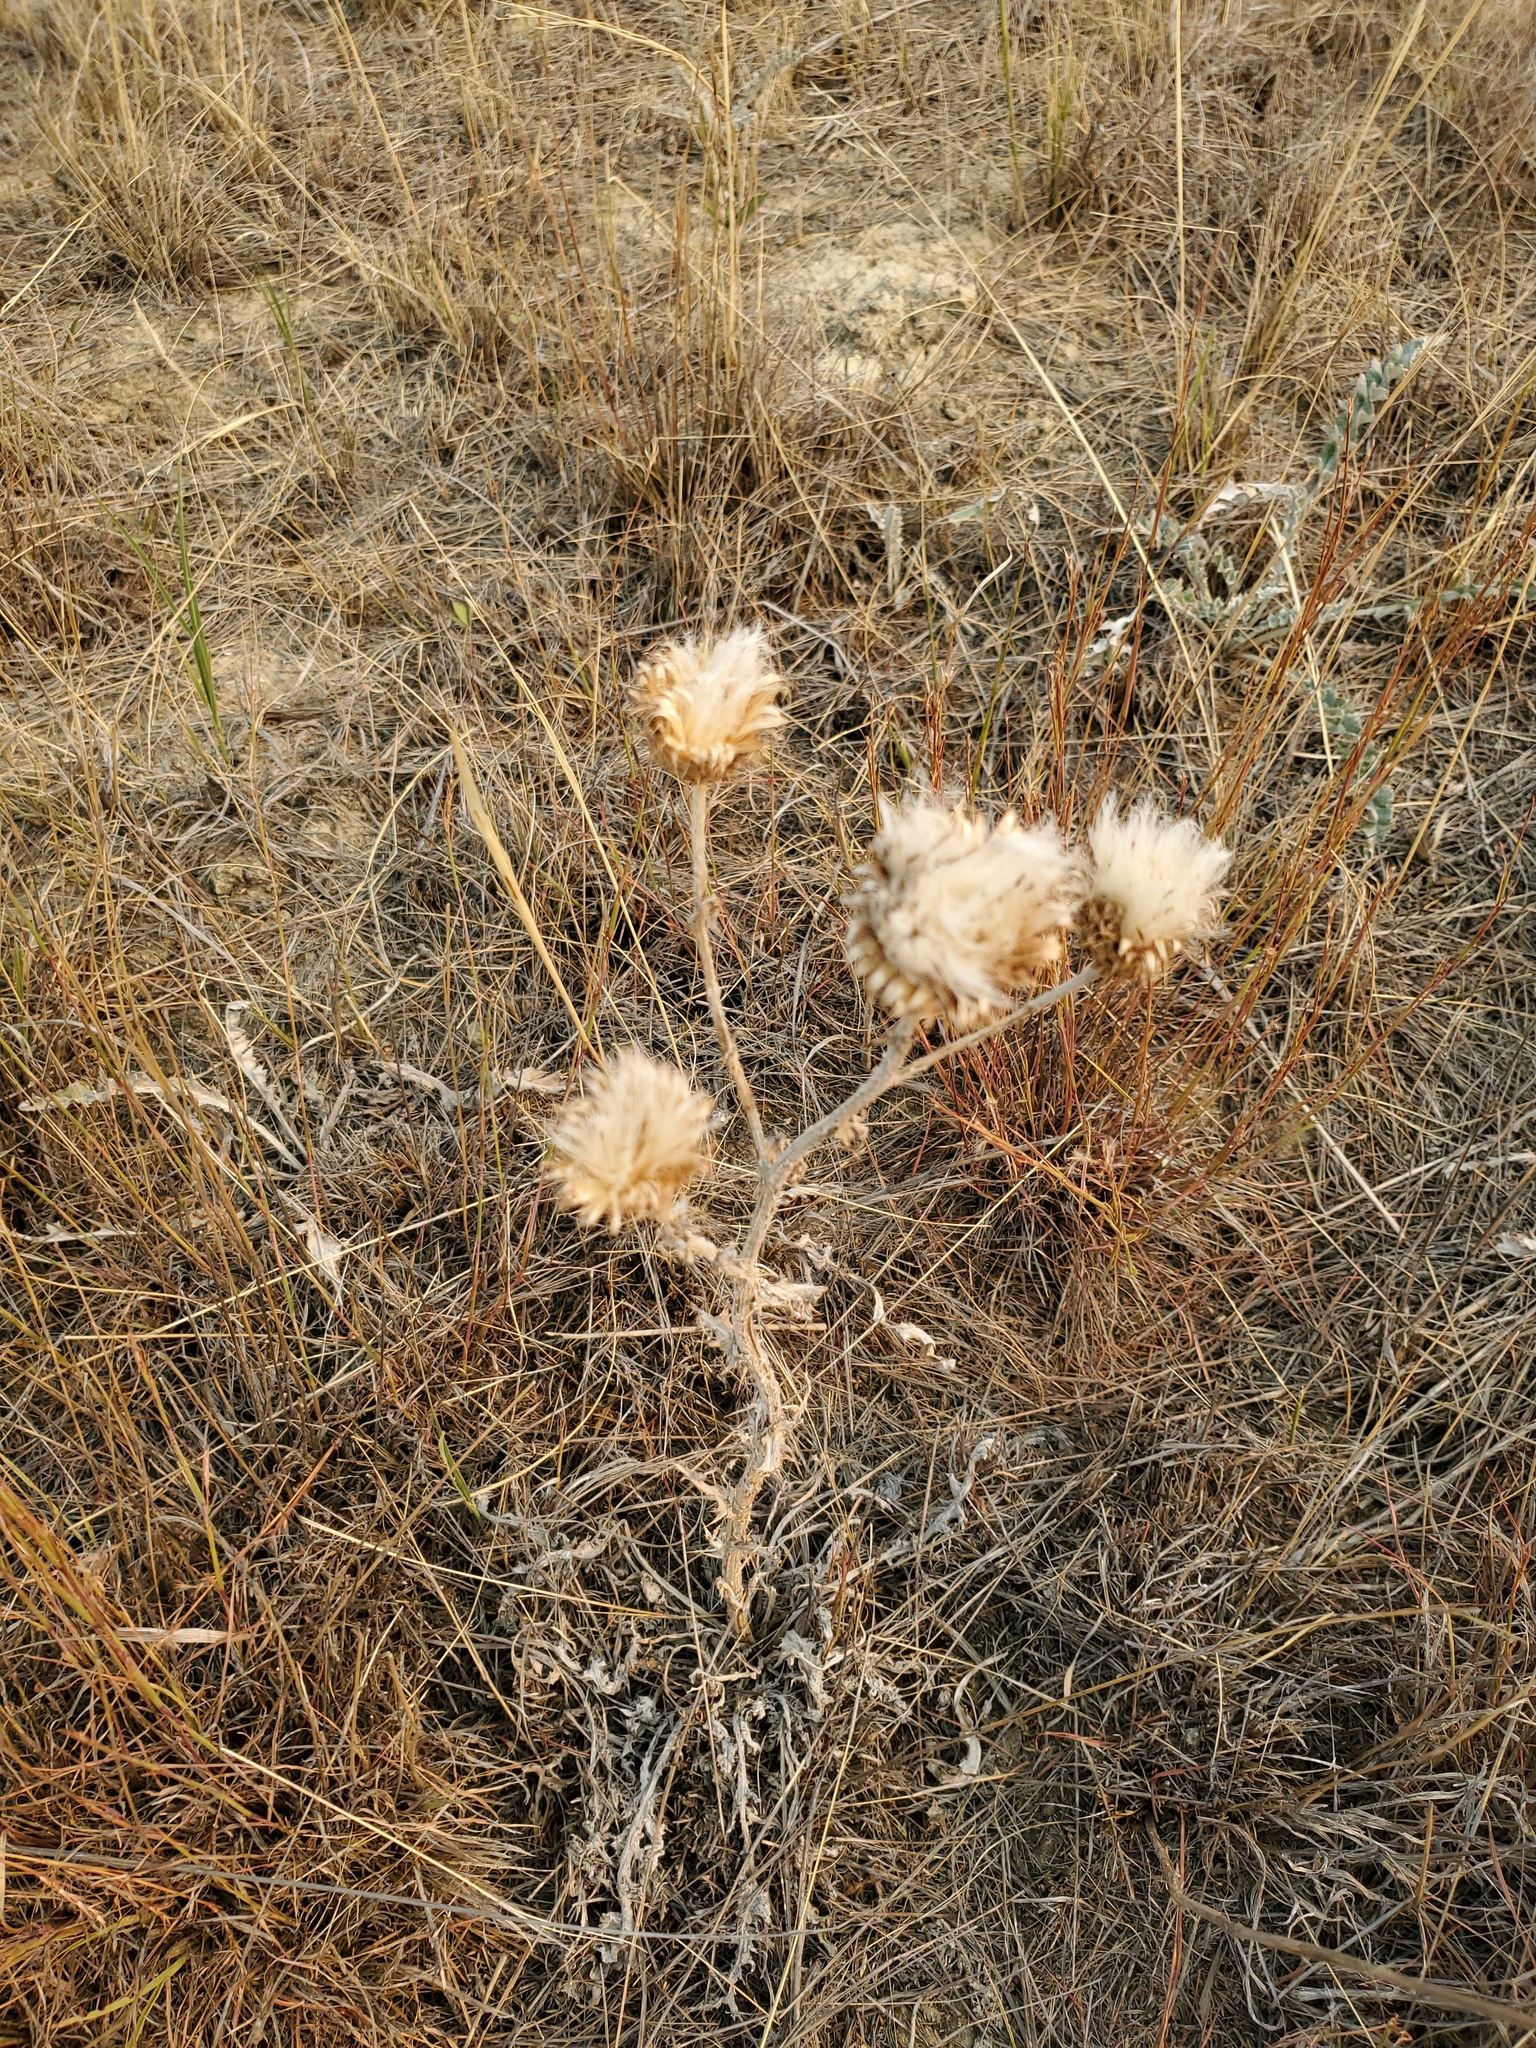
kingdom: Plantae
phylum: Tracheophyta
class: Magnoliopsida
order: Asterales
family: Asteraceae
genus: Cirsium
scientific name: Cirsium undulatum
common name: Pasture thistle
